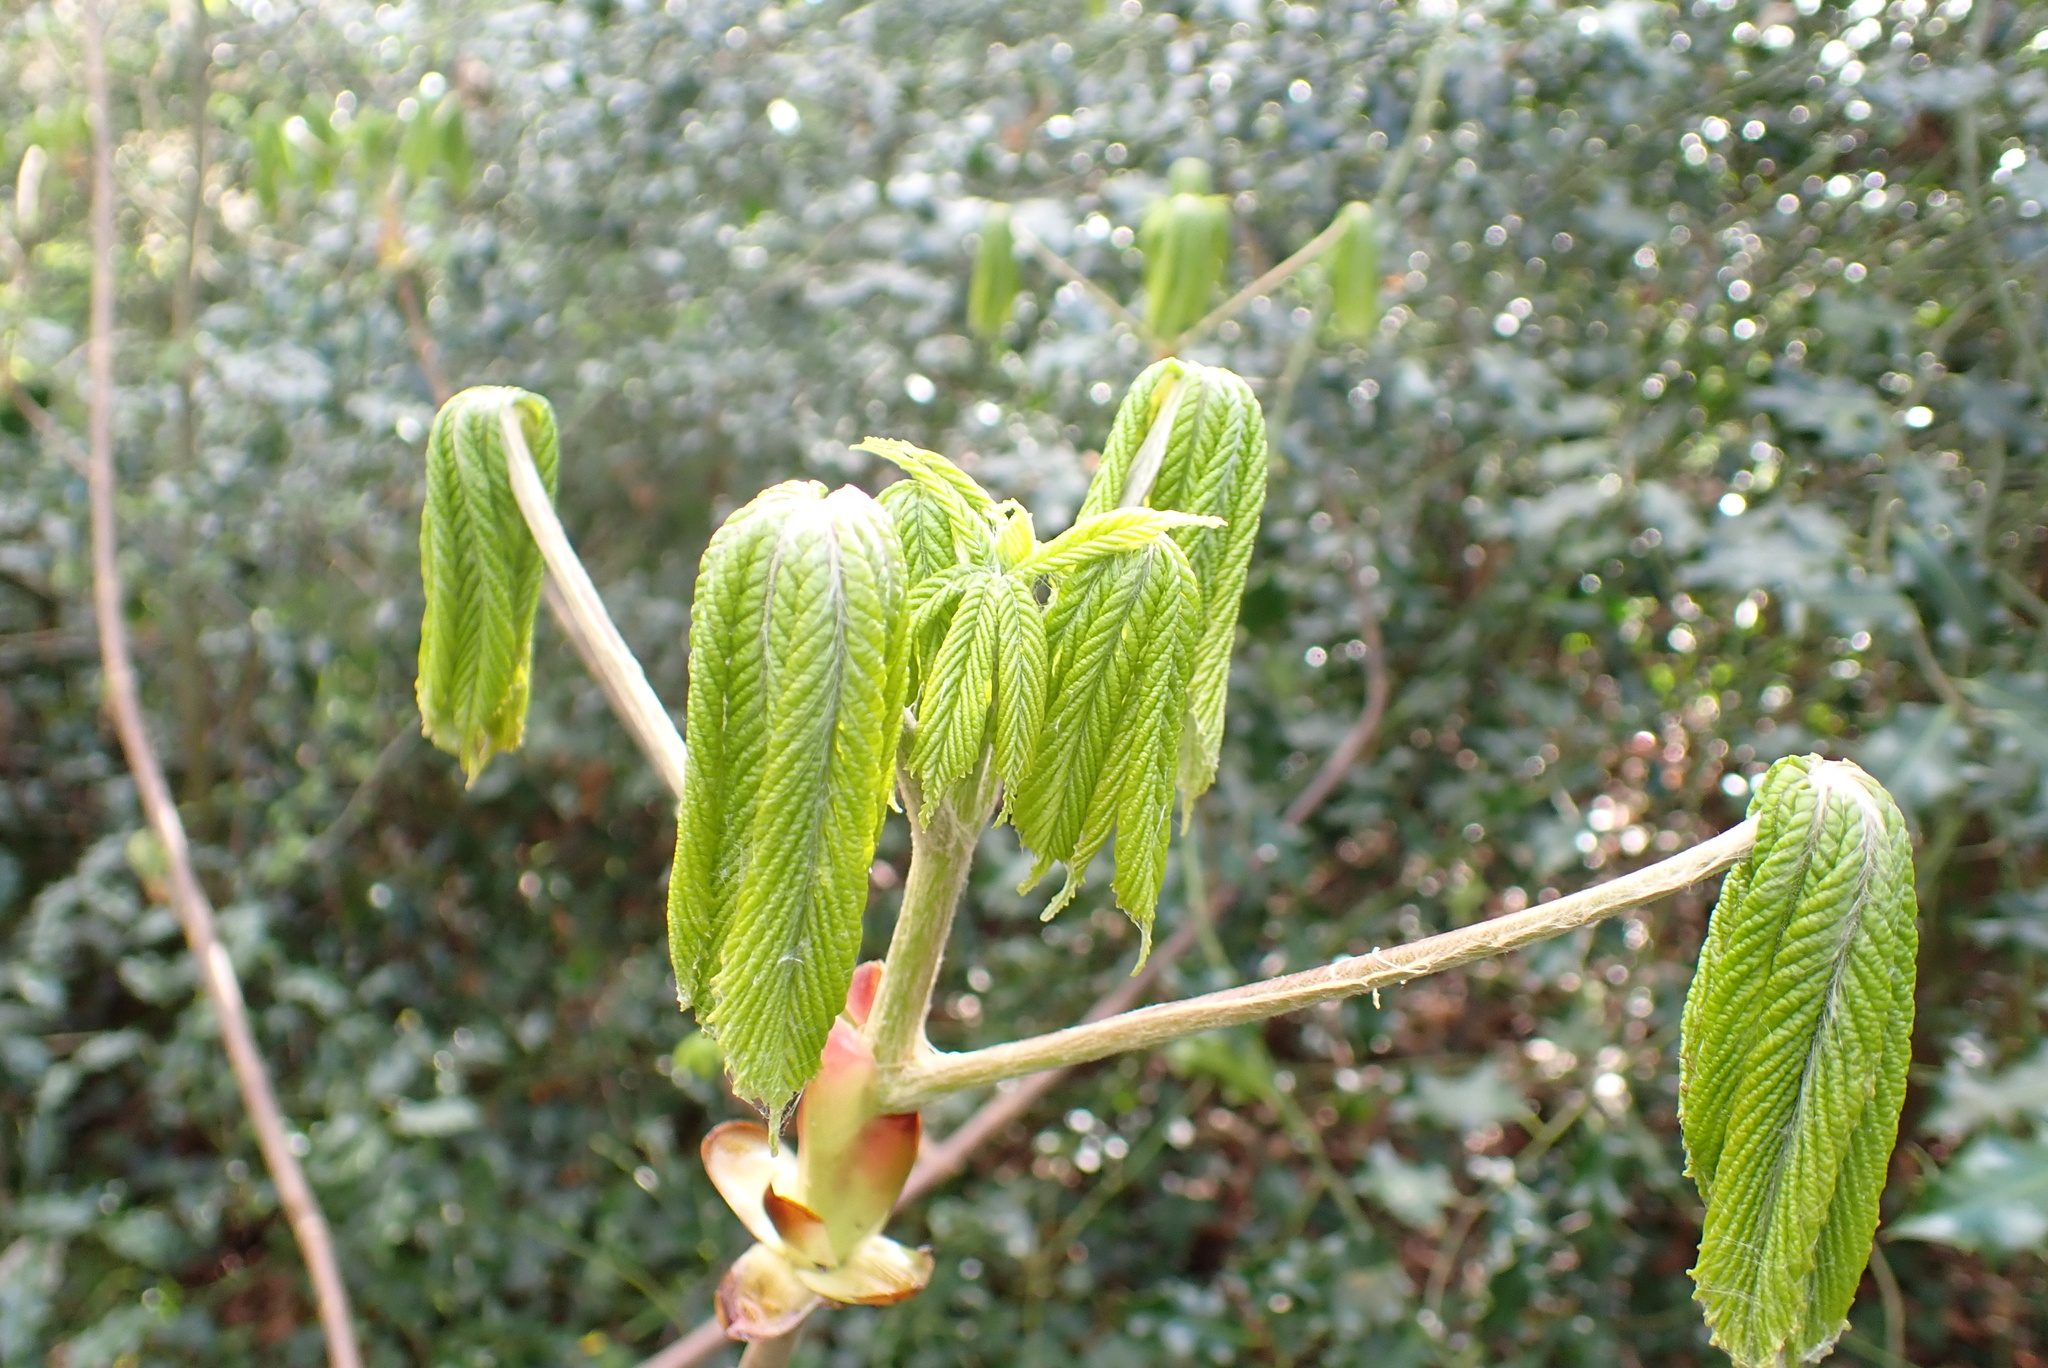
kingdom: Plantae
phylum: Tracheophyta
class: Magnoliopsida
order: Sapindales
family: Sapindaceae
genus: Aesculus
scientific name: Aesculus hippocastanum
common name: Horse-chestnut
